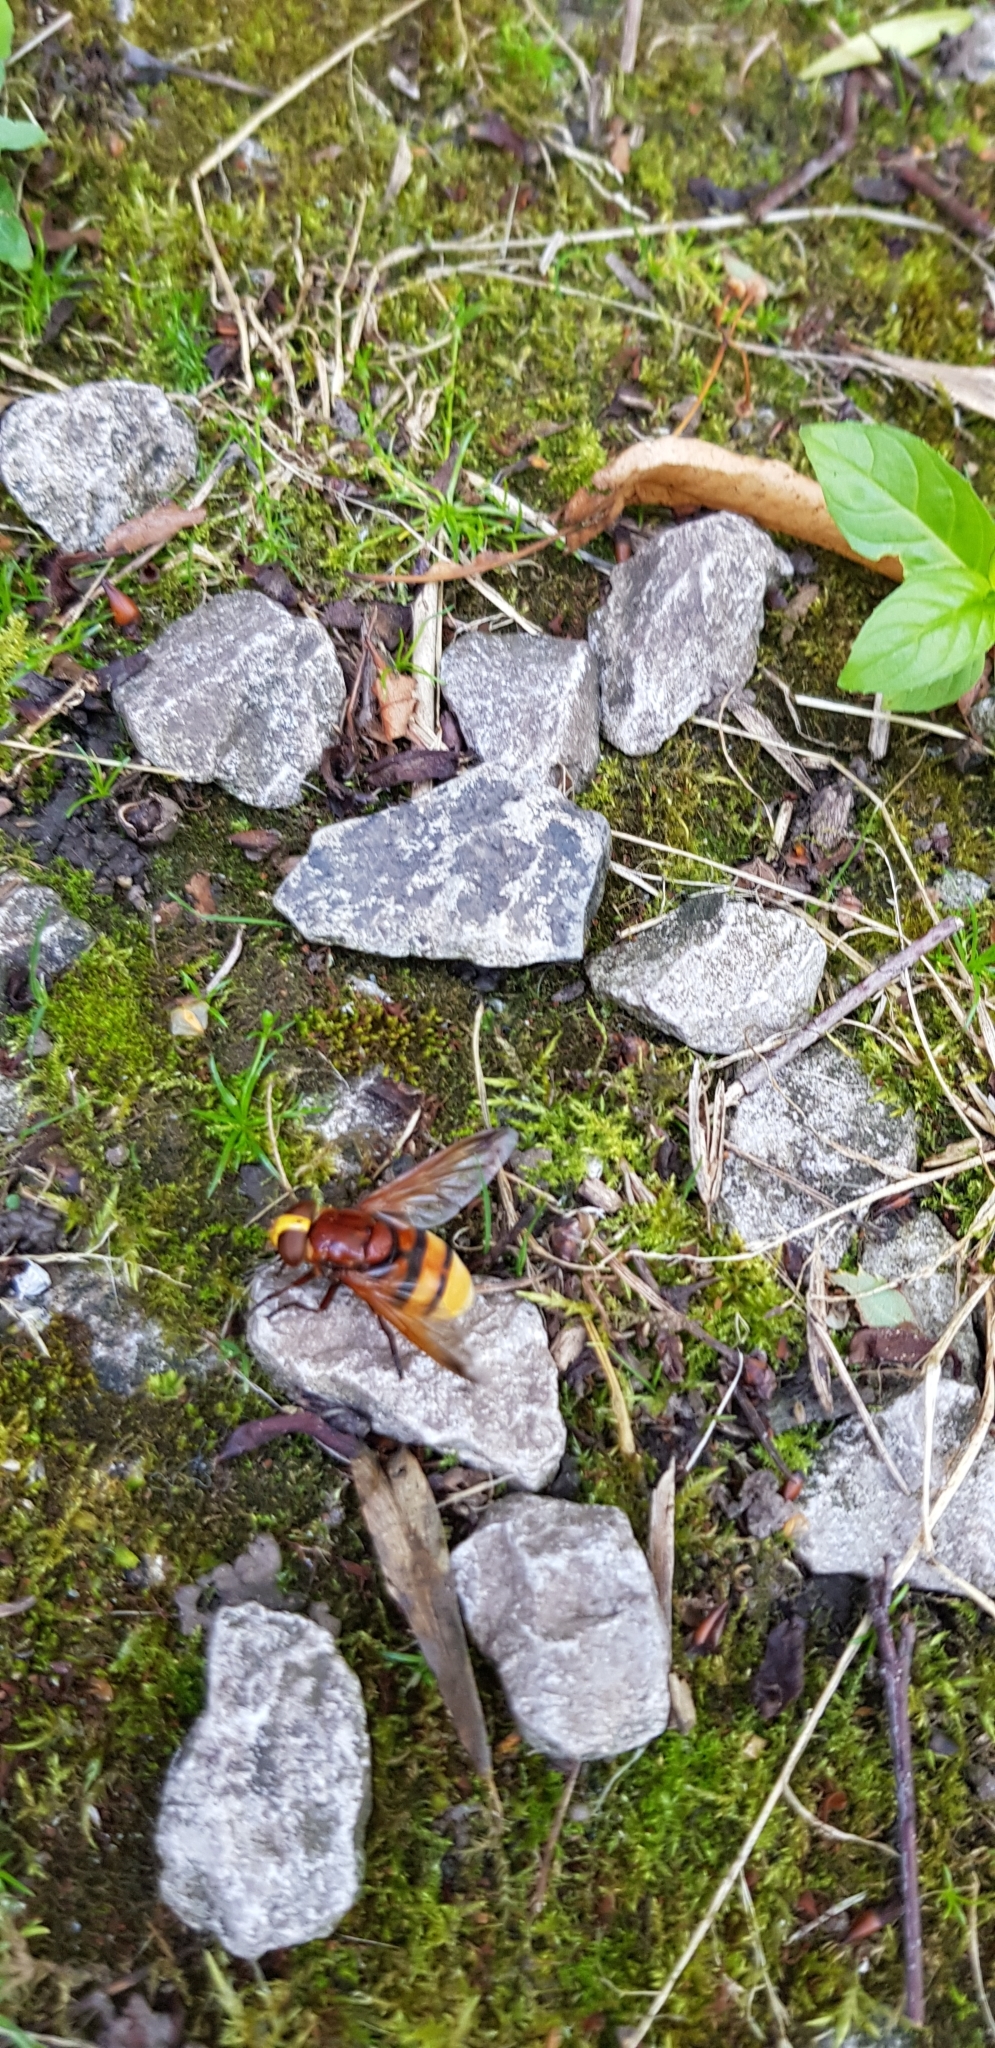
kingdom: Animalia
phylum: Arthropoda
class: Insecta
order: Diptera
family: Syrphidae
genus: Volucella
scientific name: Volucella zonaria
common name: Hornet hoverfly
